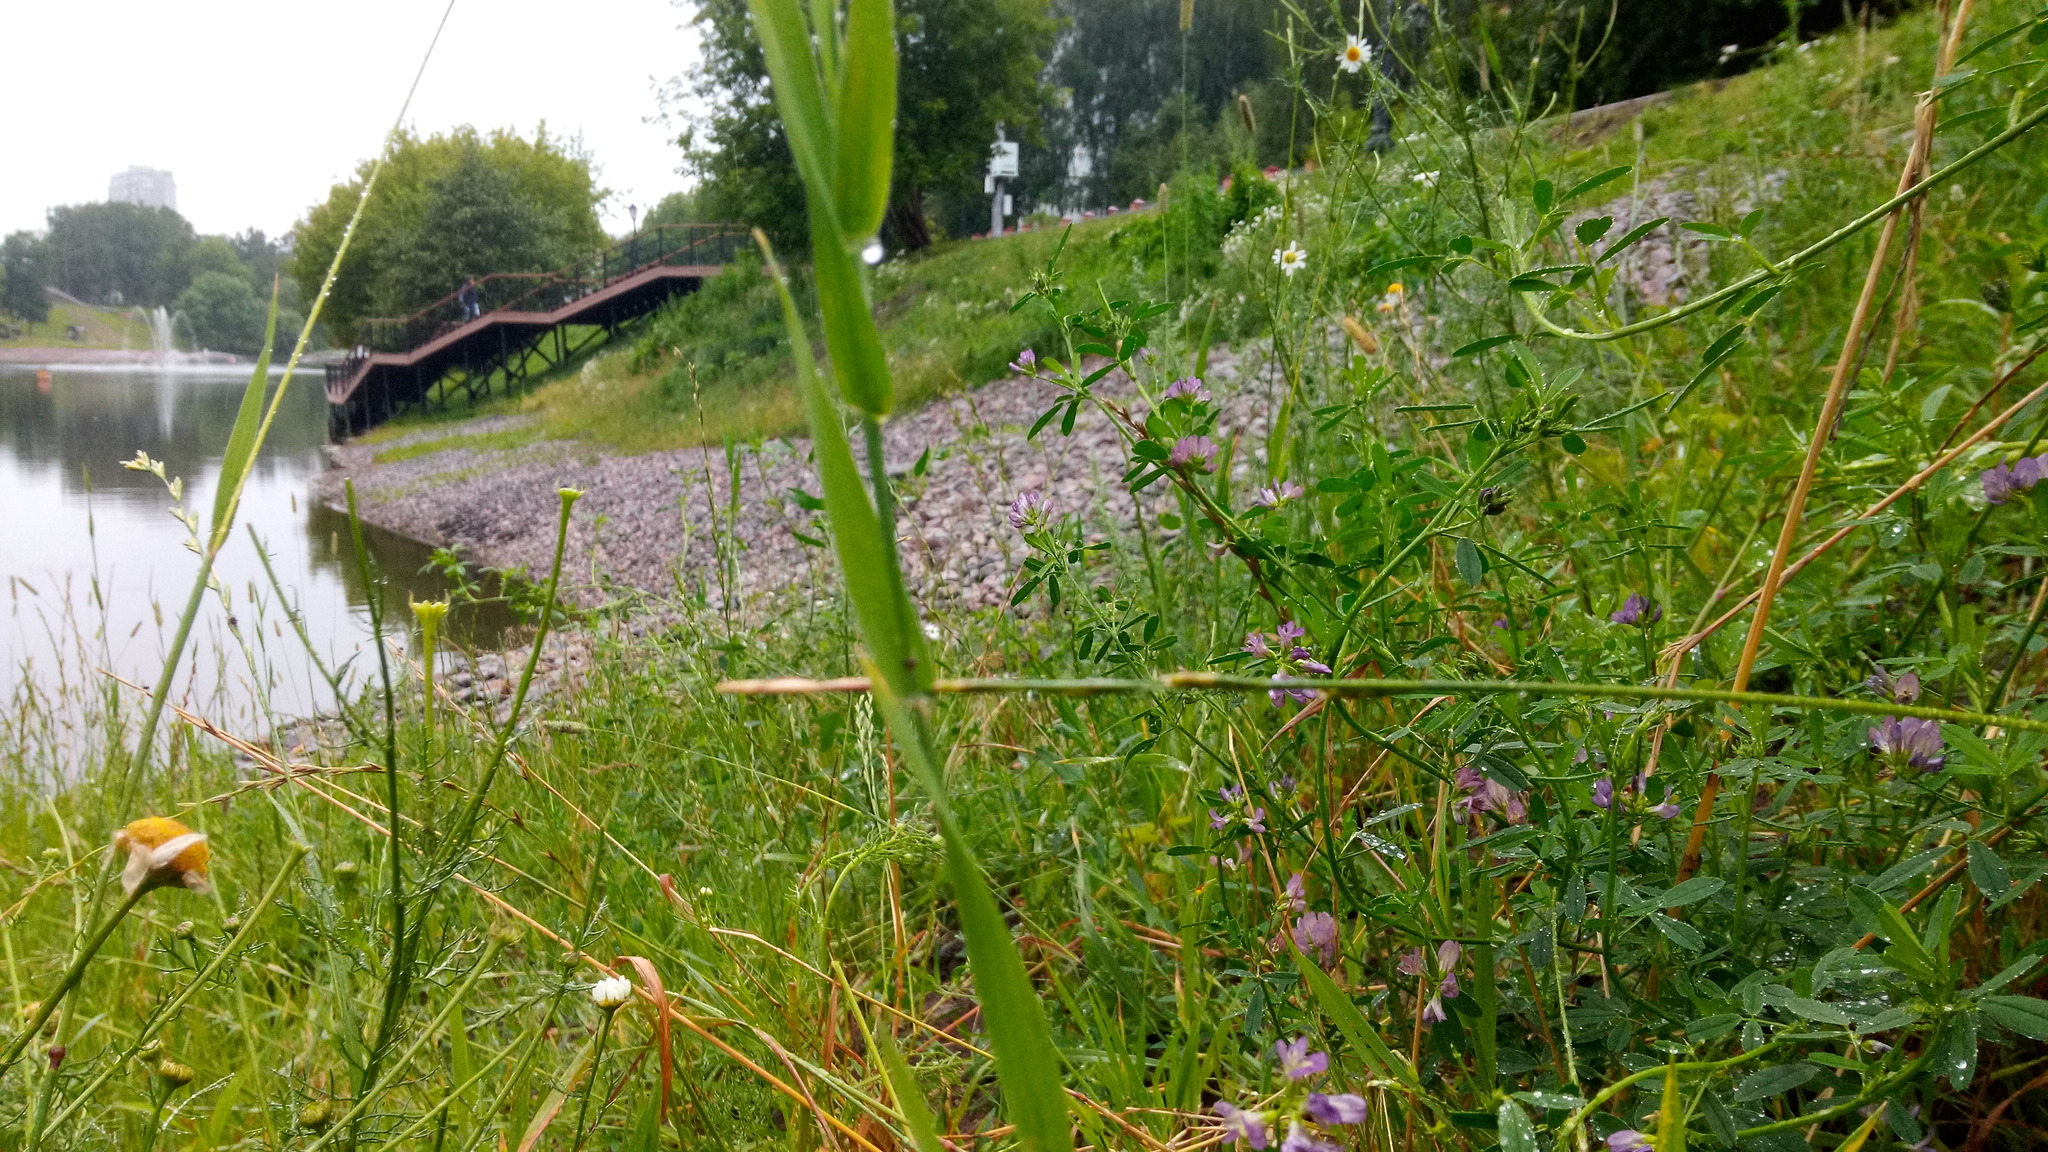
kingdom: Plantae
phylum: Tracheophyta
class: Magnoliopsida
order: Fabales
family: Fabaceae
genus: Medicago
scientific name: Medicago varia
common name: Sand lucerne
